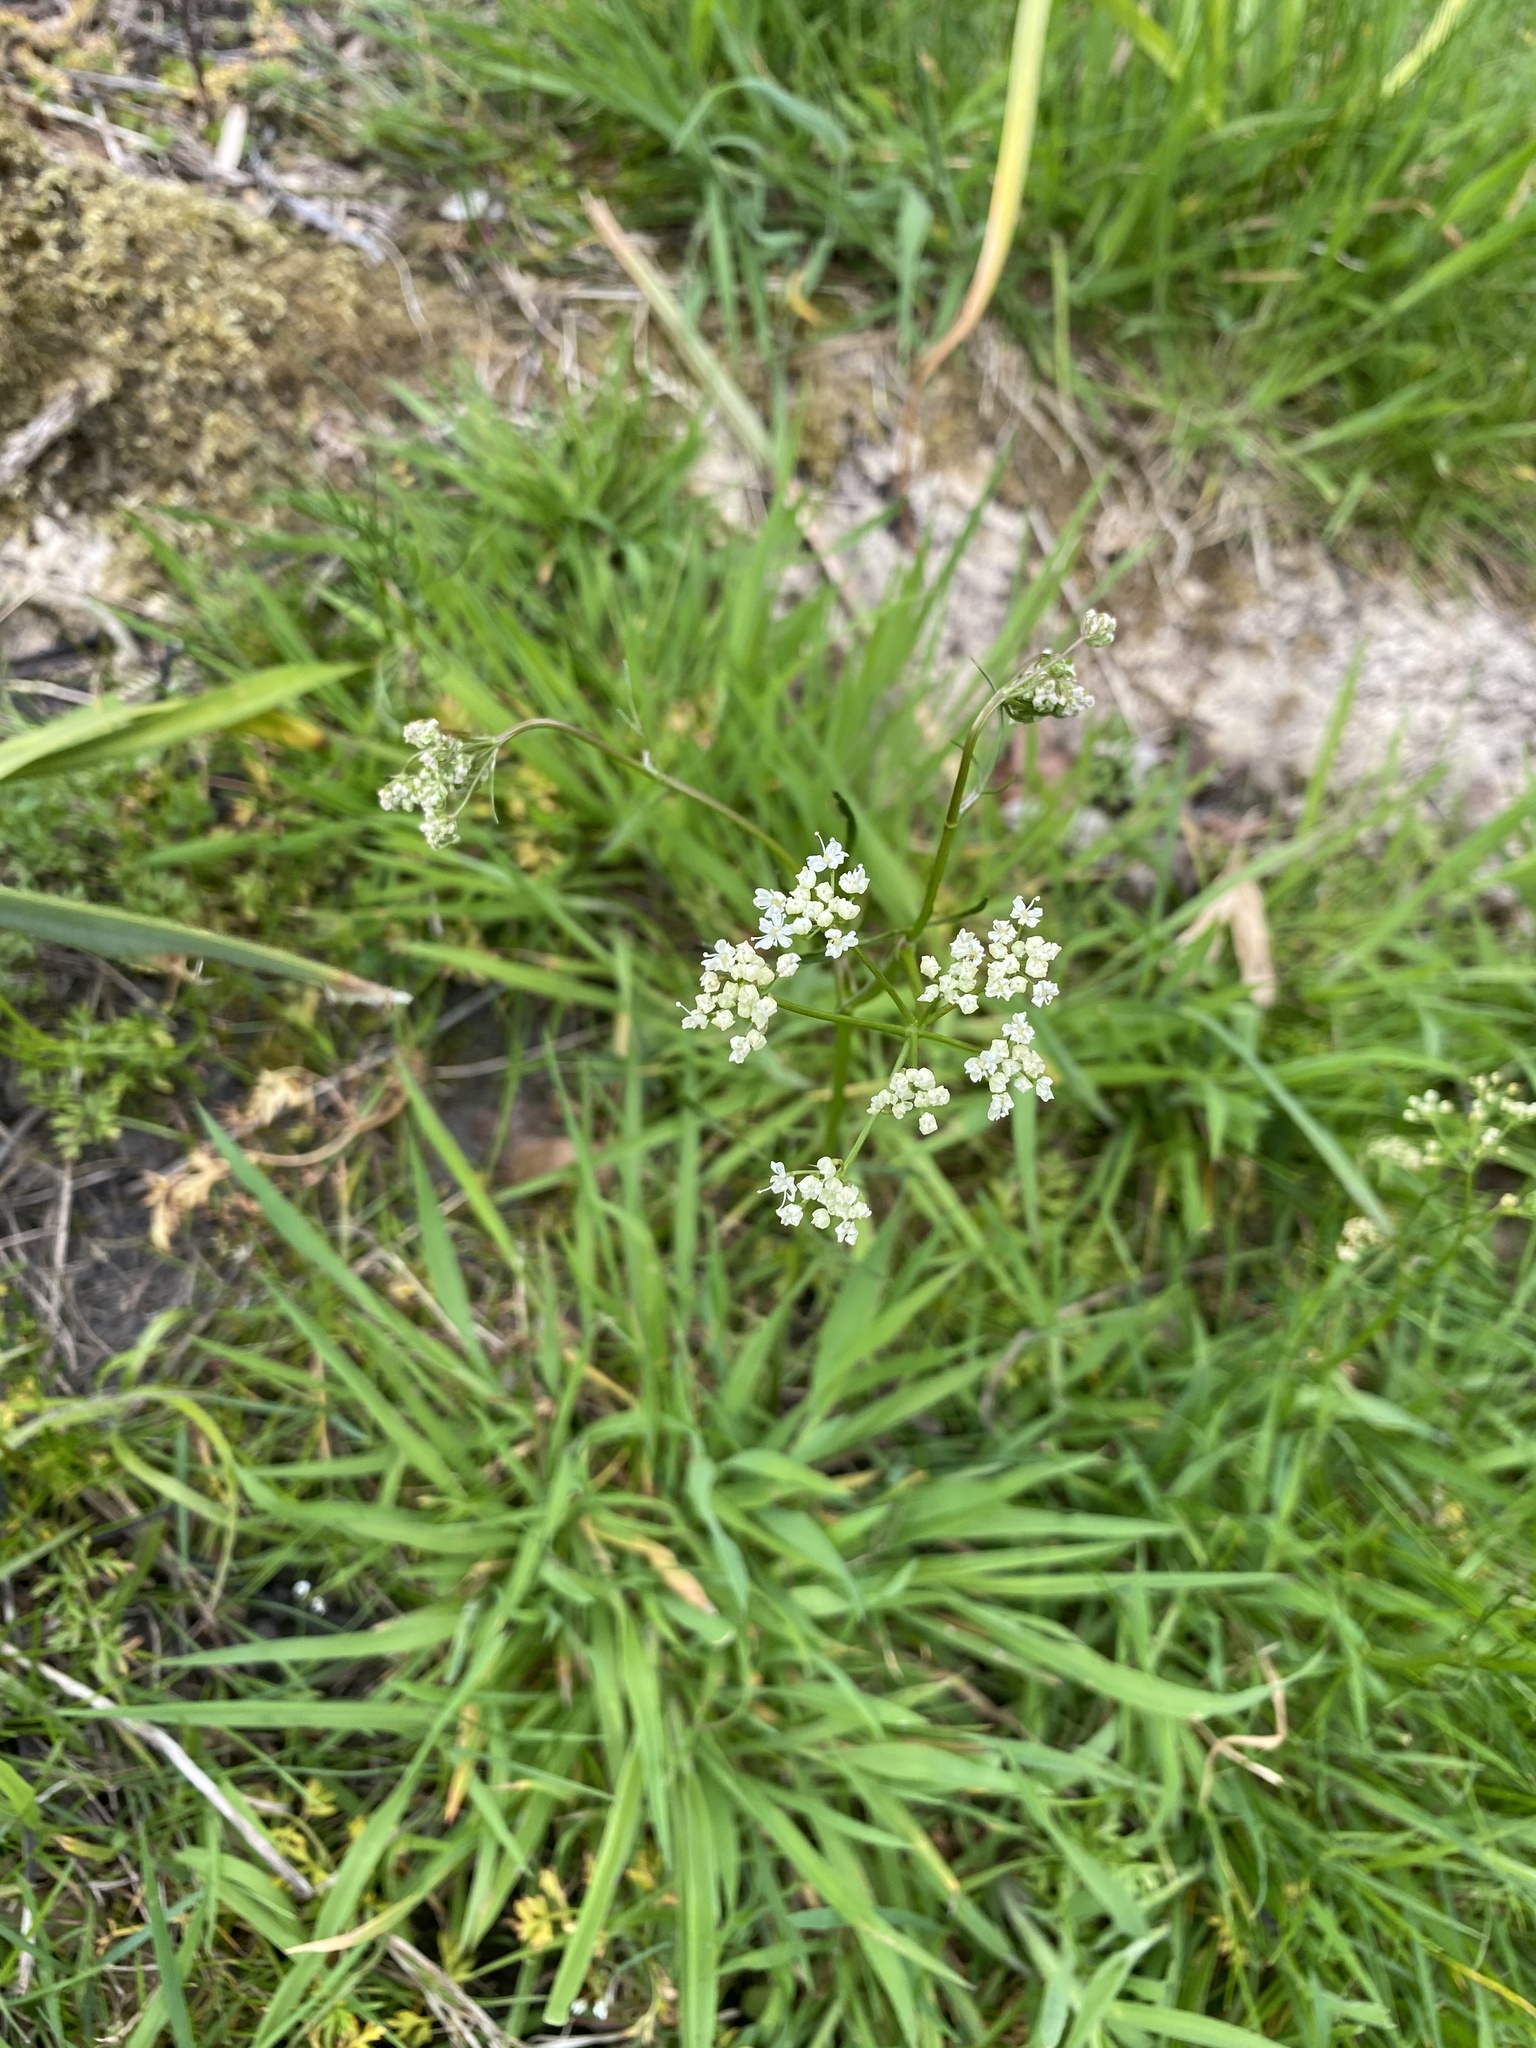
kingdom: Plantae
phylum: Tracheophyta
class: Magnoliopsida
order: Apiales
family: Apiaceae
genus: Conopodium
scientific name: Conopodium majus
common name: Pignut
